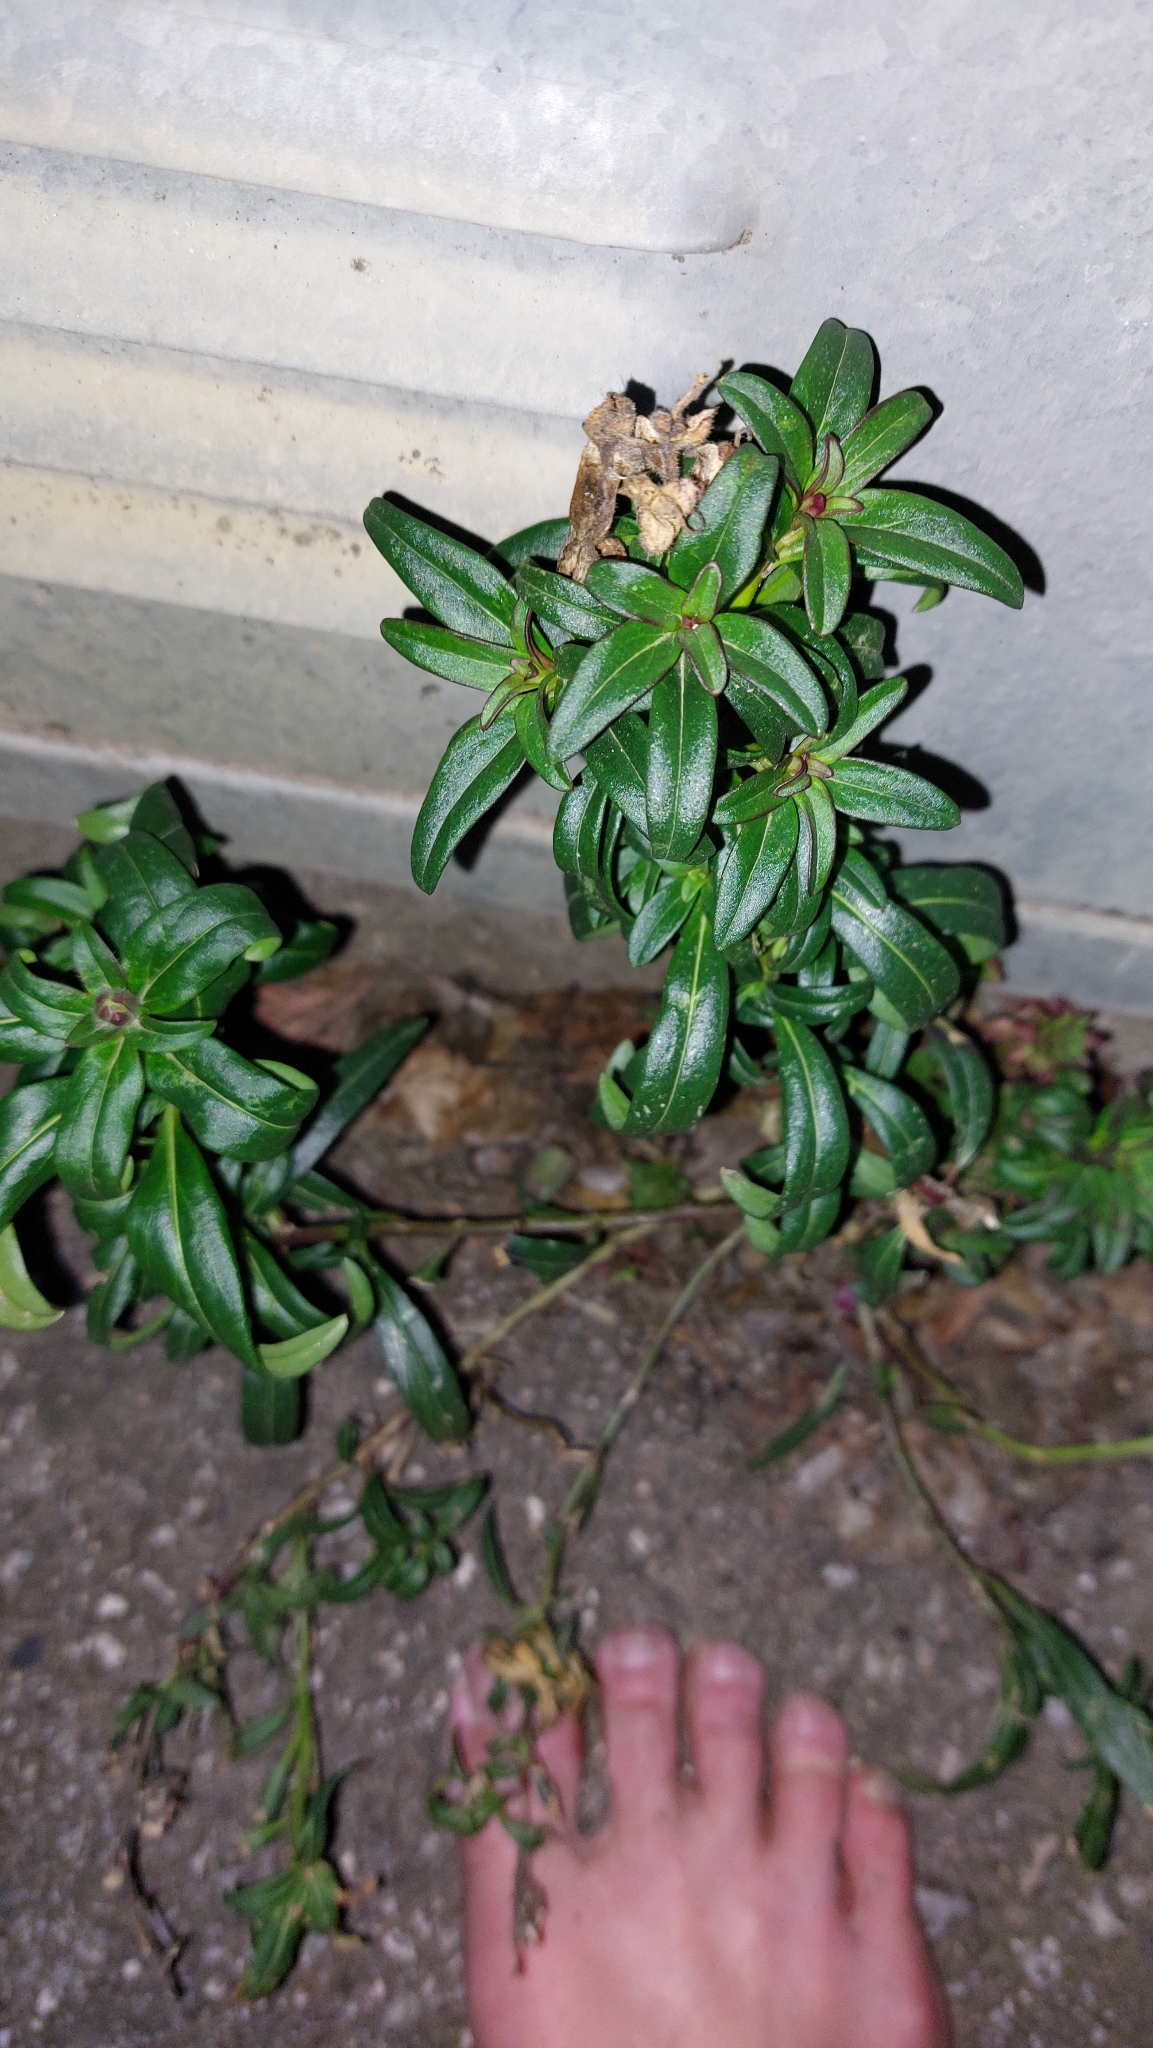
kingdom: Plantae
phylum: Tracheophyta
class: Magnoliopsida
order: Lamiales
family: Plantaginaceae
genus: Antirrhinum
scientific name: Antirrhinum majus
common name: Snapdragon
